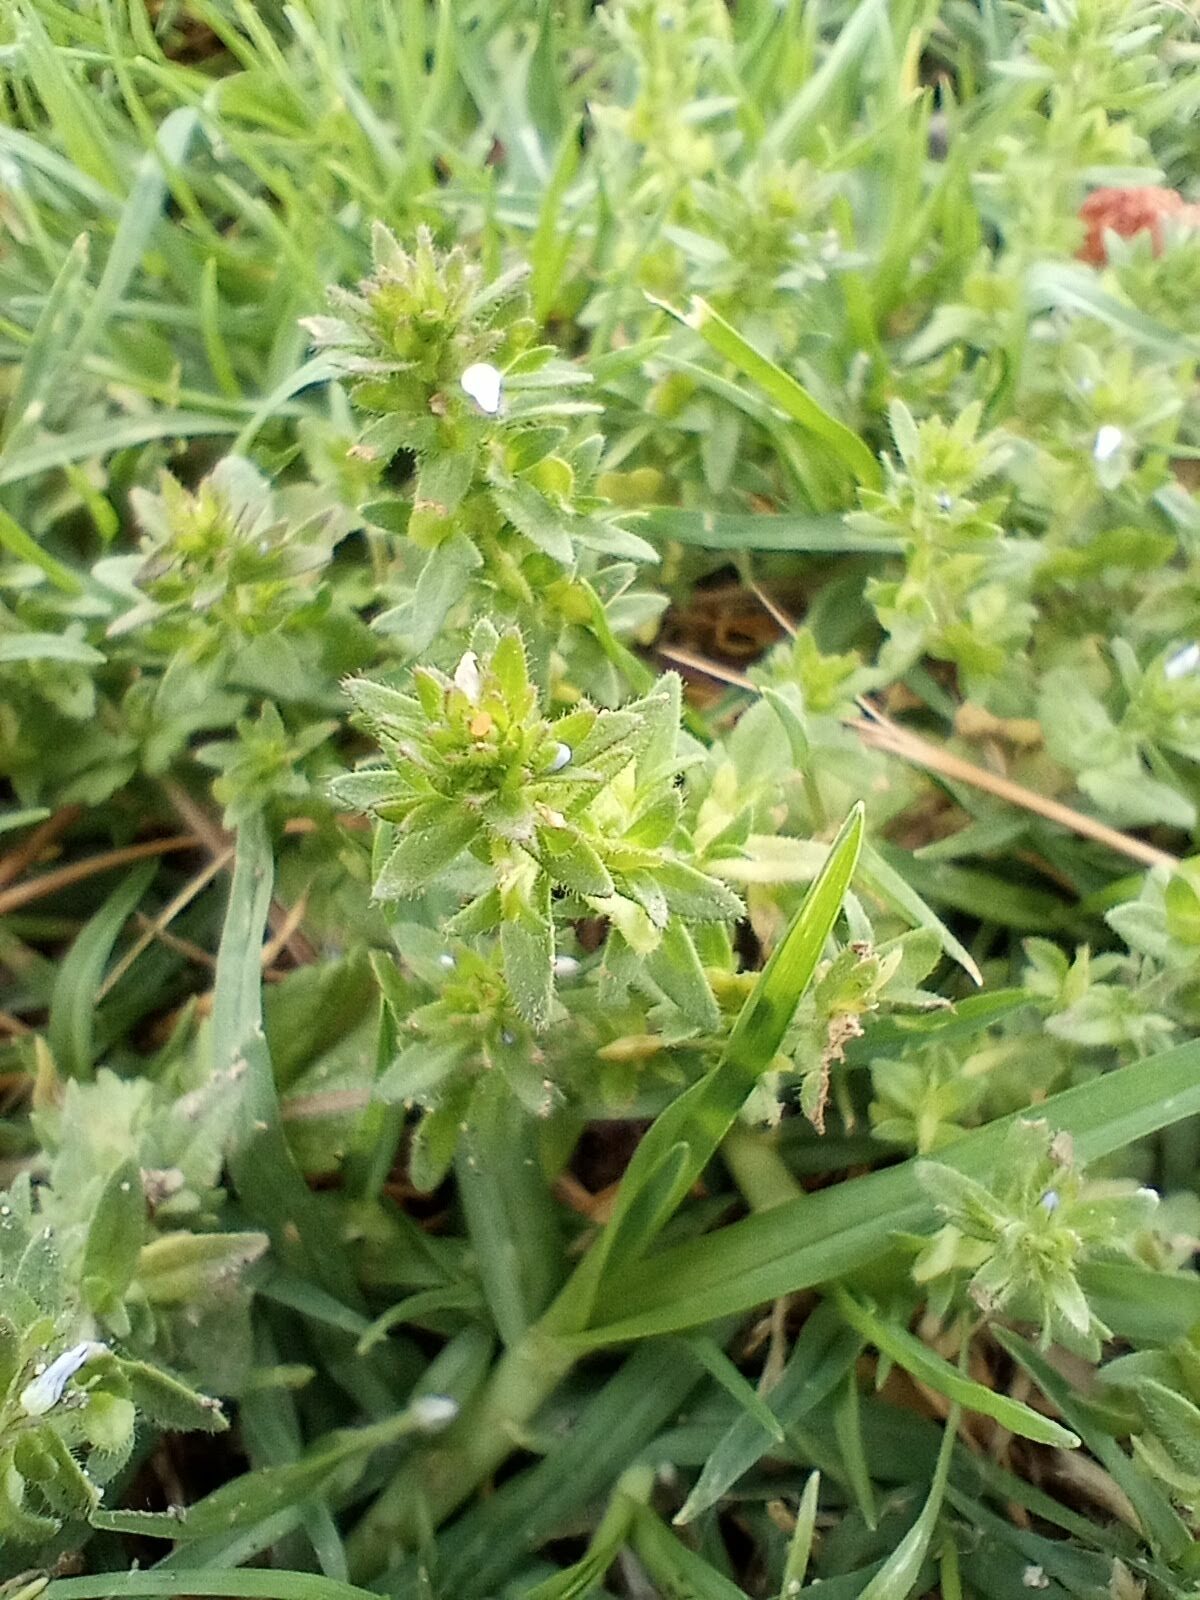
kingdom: Plantae
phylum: Tracheophyta
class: Magnoliopsida
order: Lamiales
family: Plantaginaceae
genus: Veronica
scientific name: Veronica arvensis
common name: Corn speedwell
